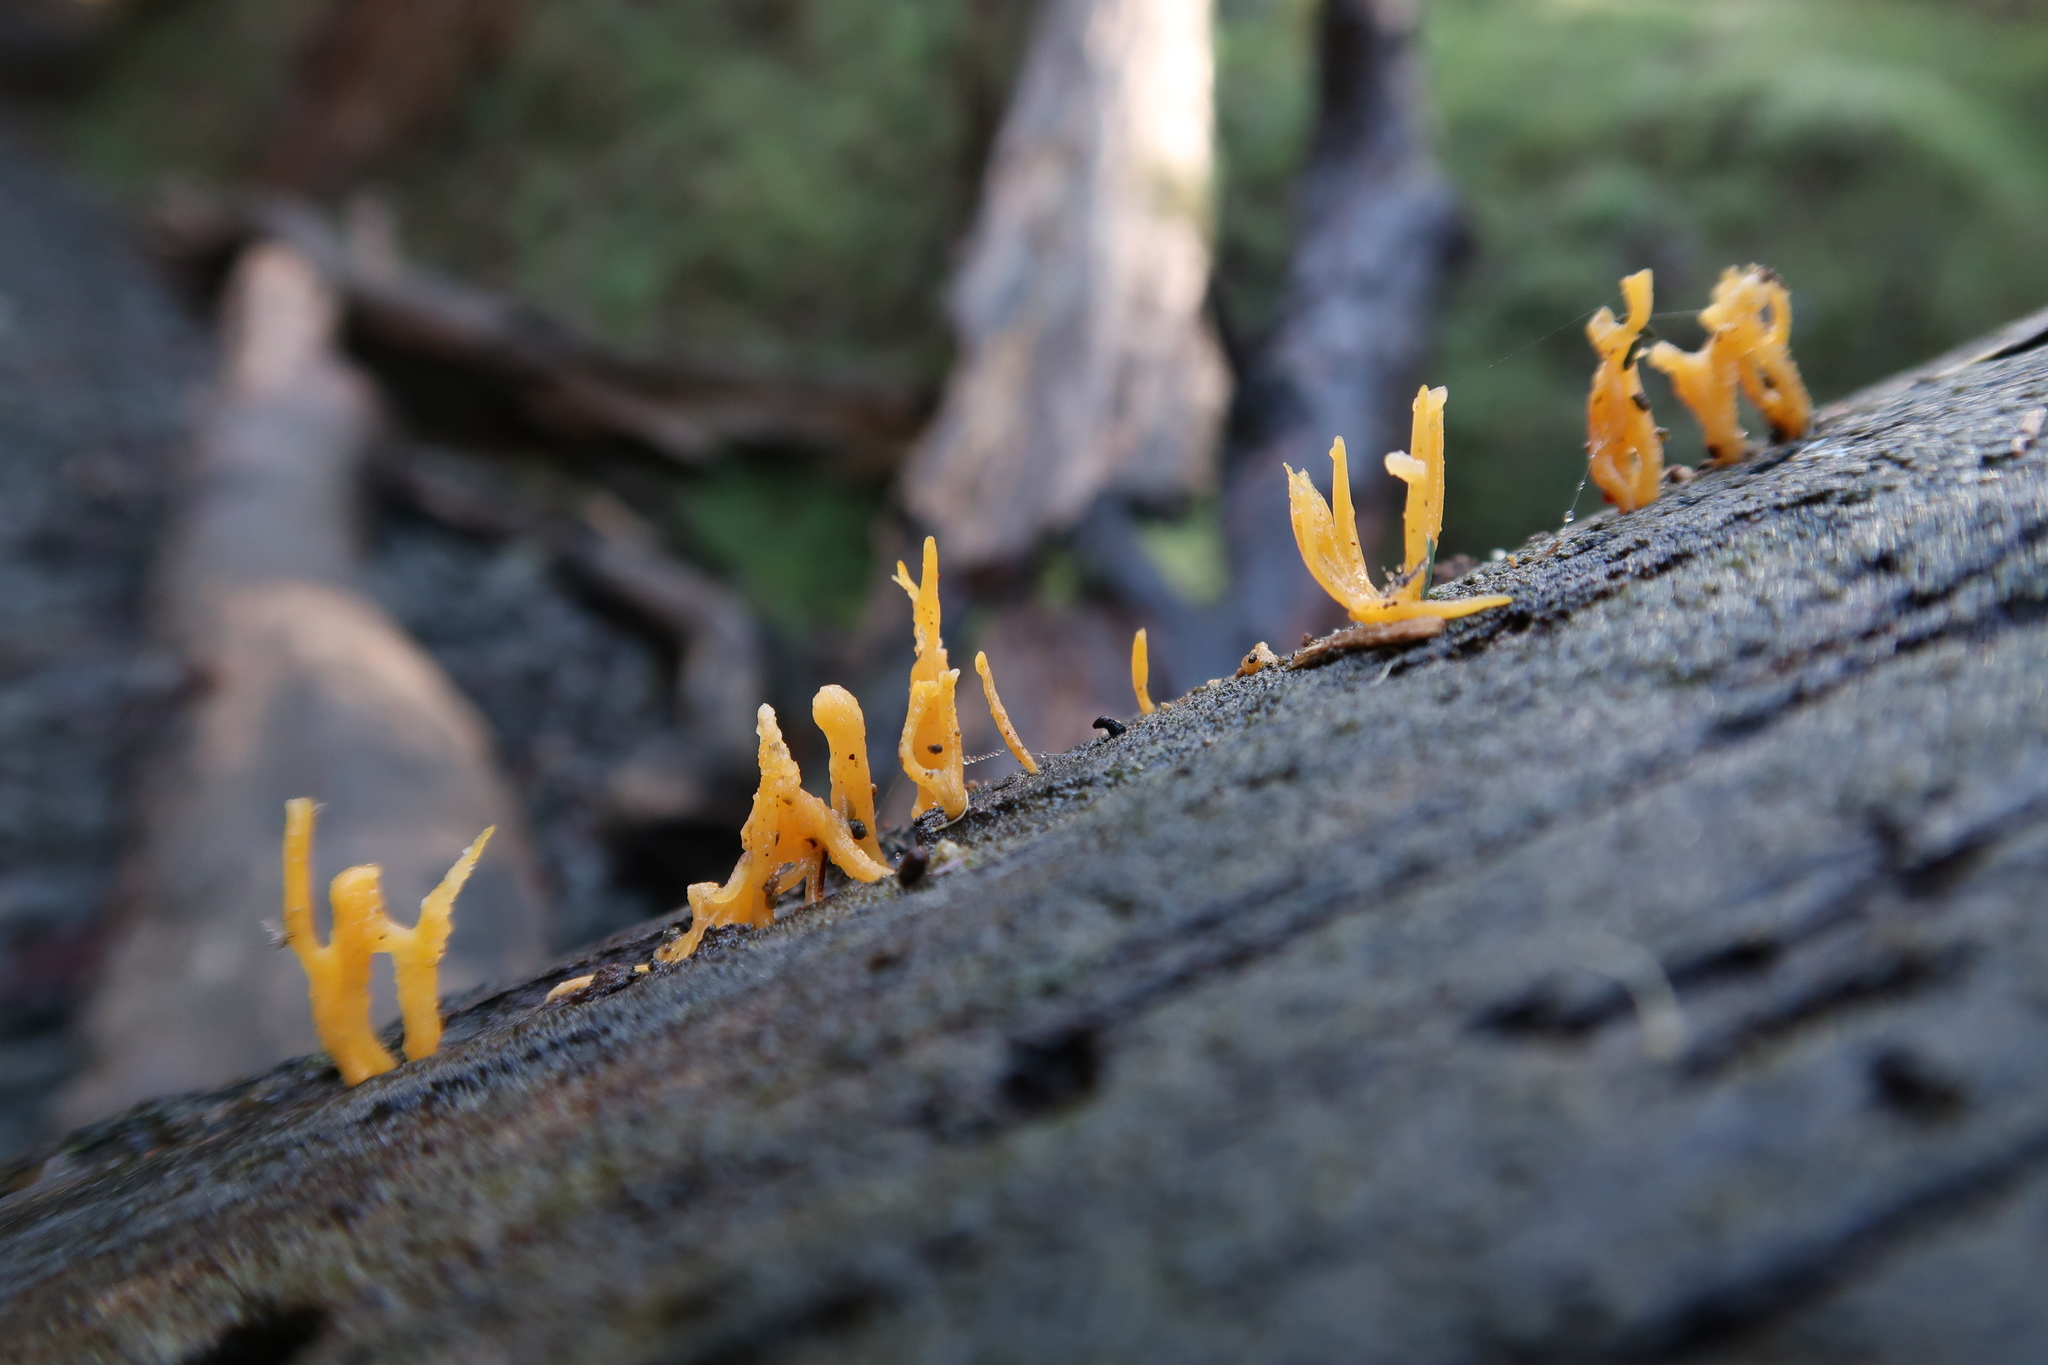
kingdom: Fungi
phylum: Basidiomycota
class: Dacrymycetes
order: Dacrymycetales
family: Dacrymycetaceae
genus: Calocera
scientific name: Calocera guepinioides
